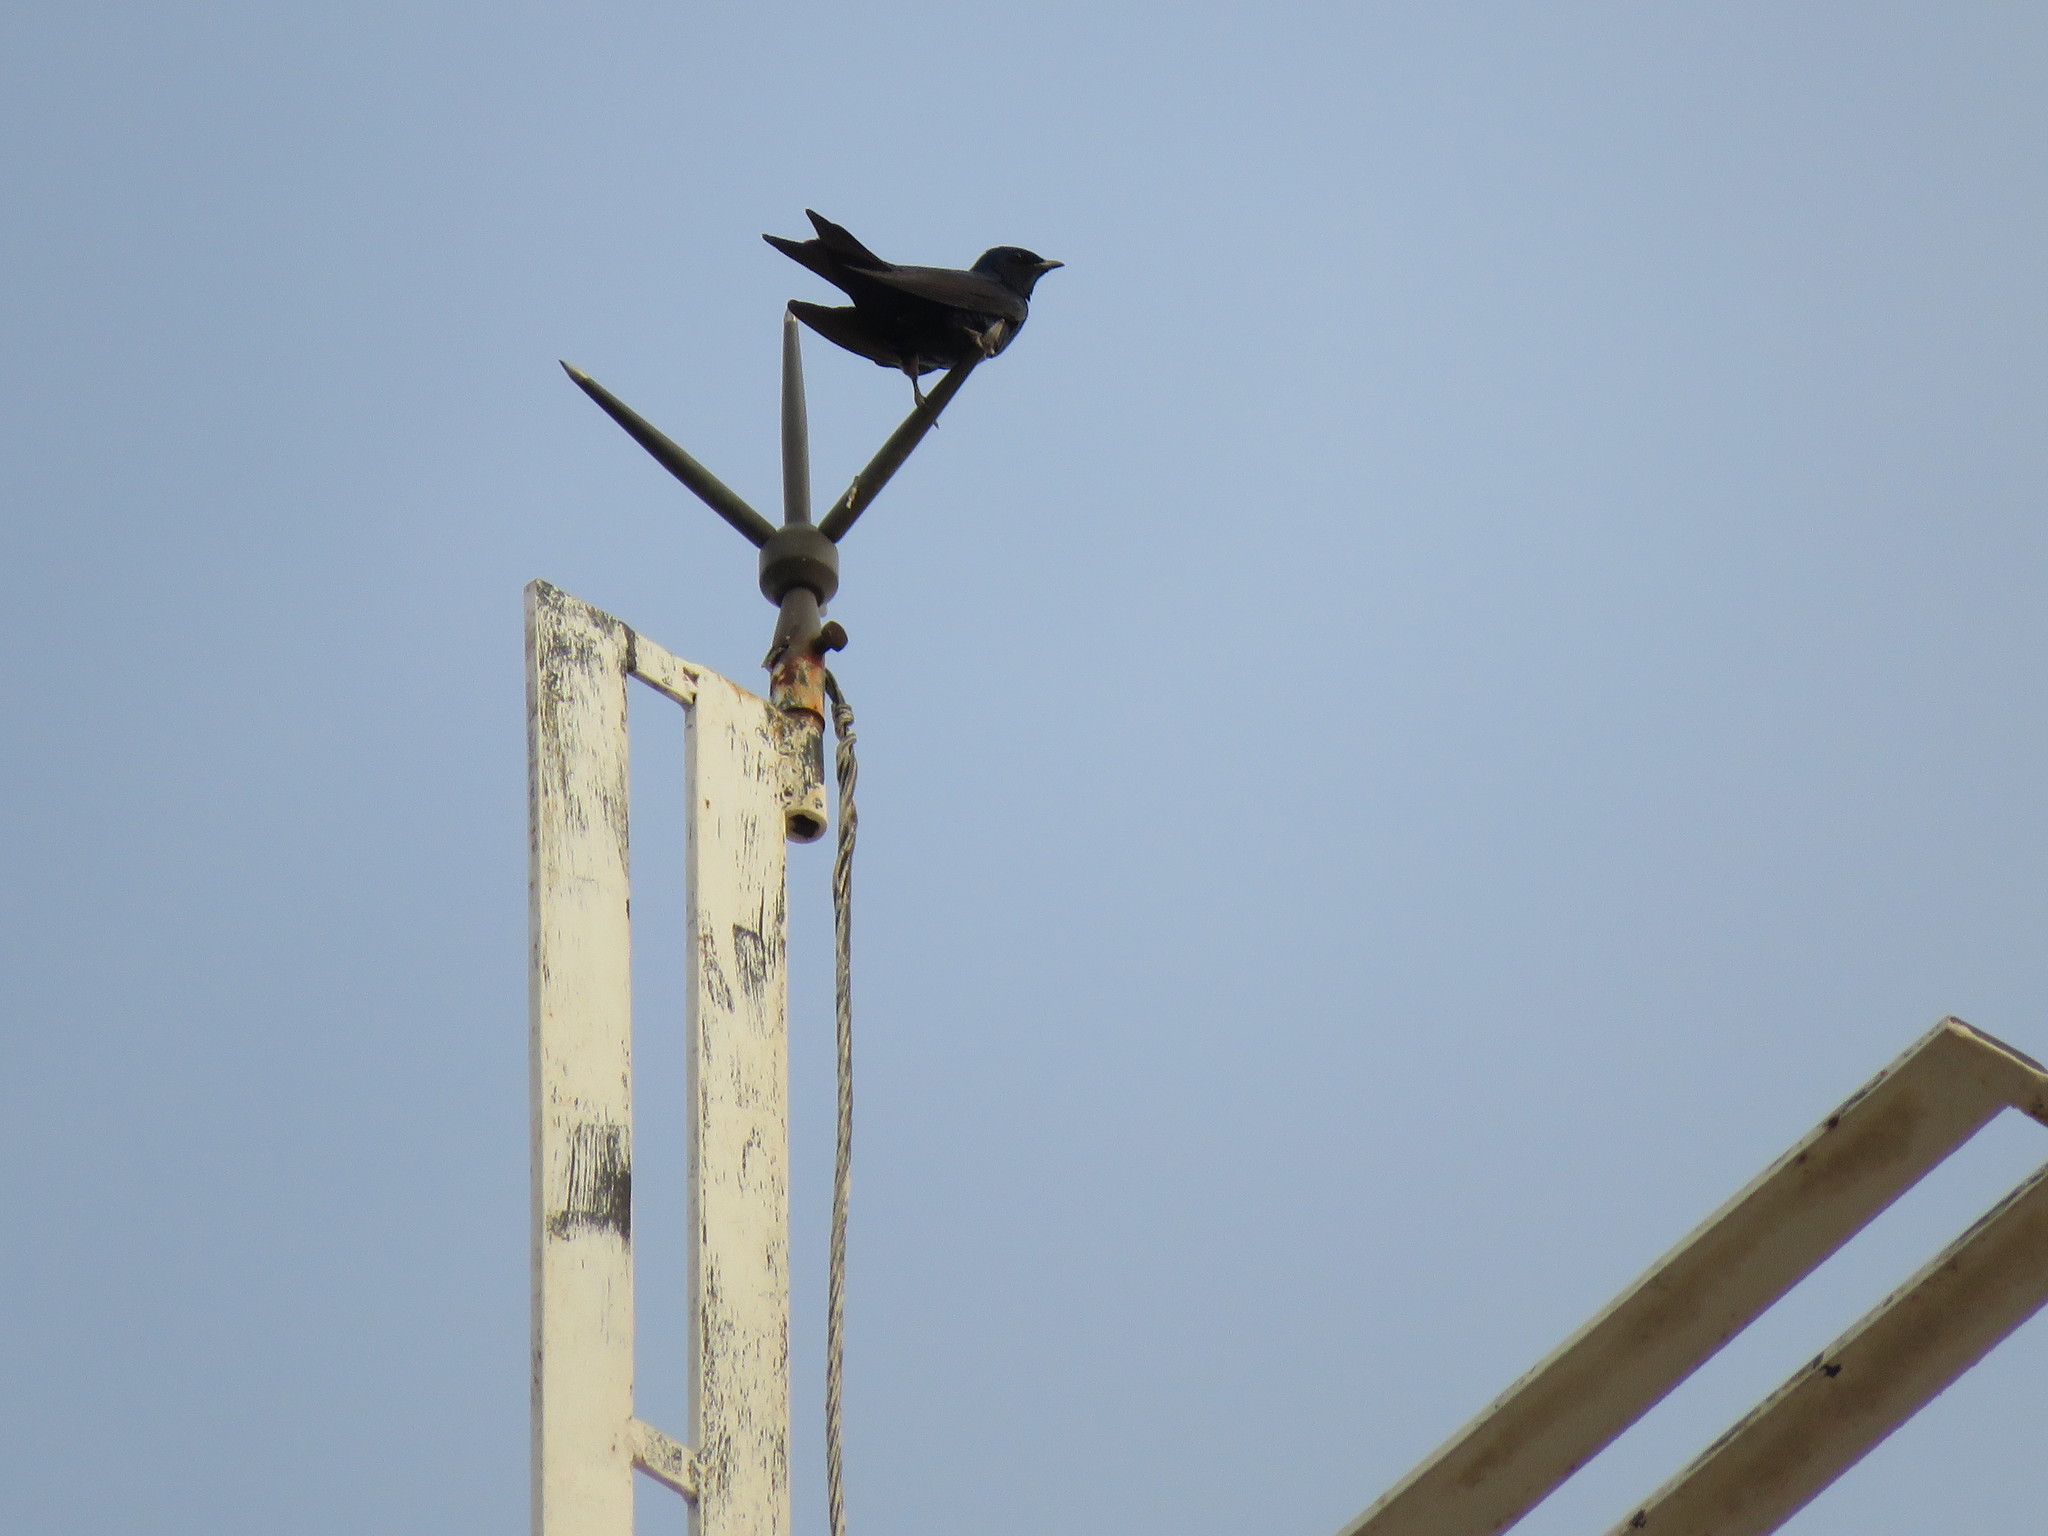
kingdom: Animalia
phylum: Chordata
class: Aves
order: Passeriformes
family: Hirundinidae
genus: Progne
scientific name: Progne elegans
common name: Southern martin
